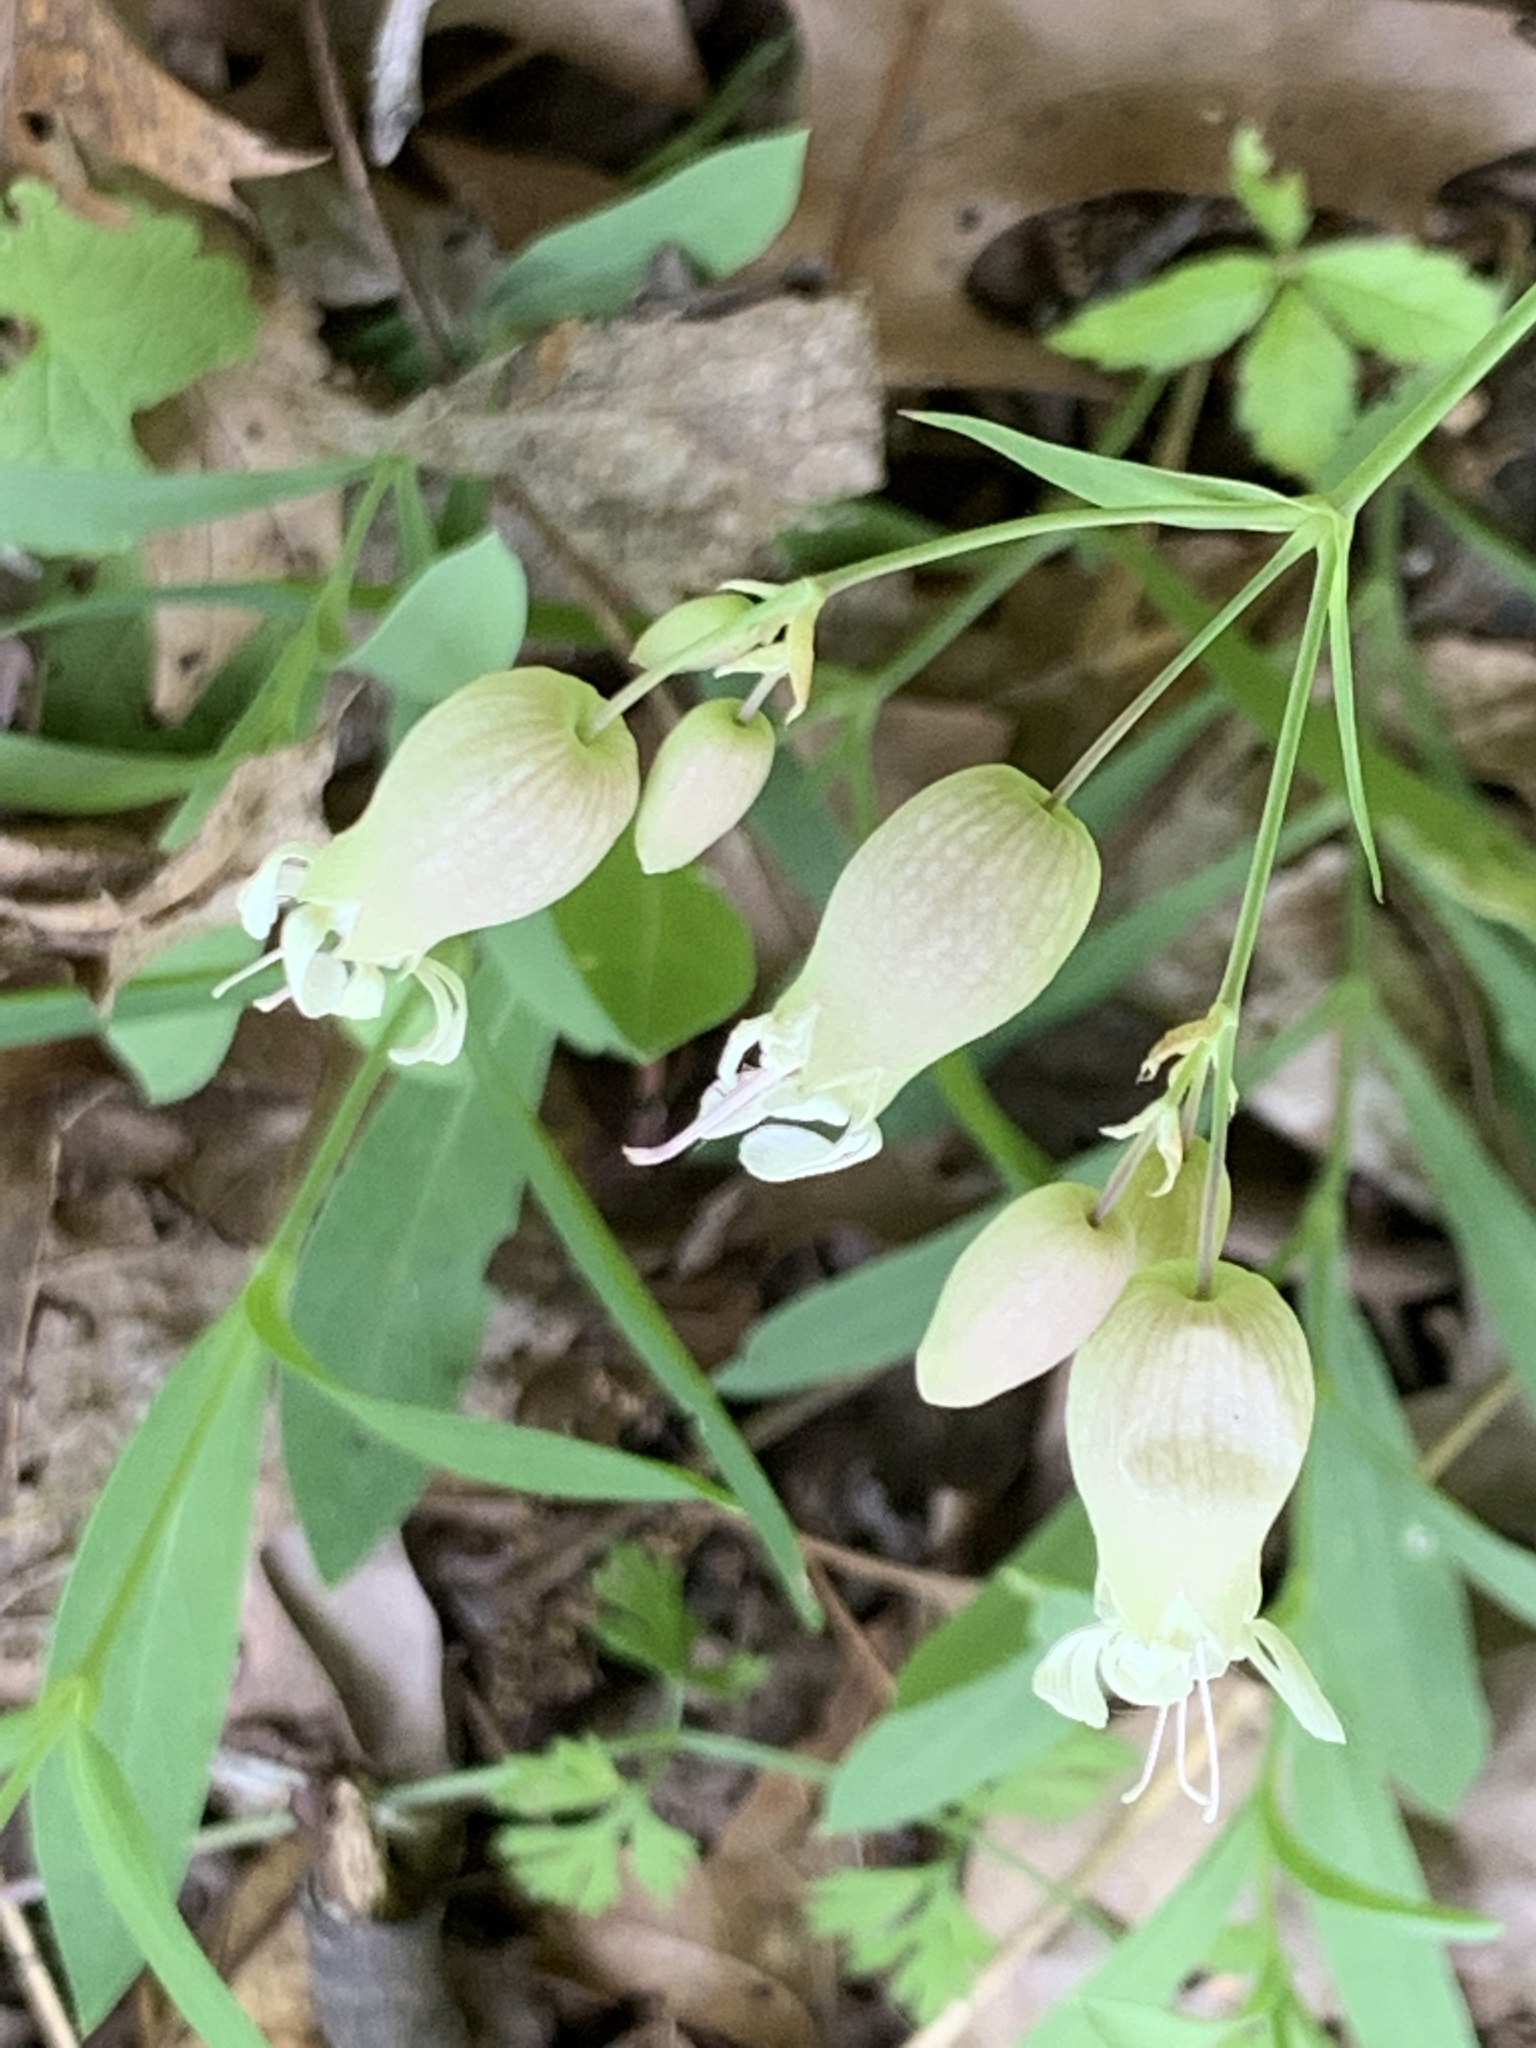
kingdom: Plantae
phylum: Tracheophyta
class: Magnoliopsida
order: Caryophyllales
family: Caryophyllaceae
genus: Silene
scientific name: Silene vulgaris
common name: Bladder campion
